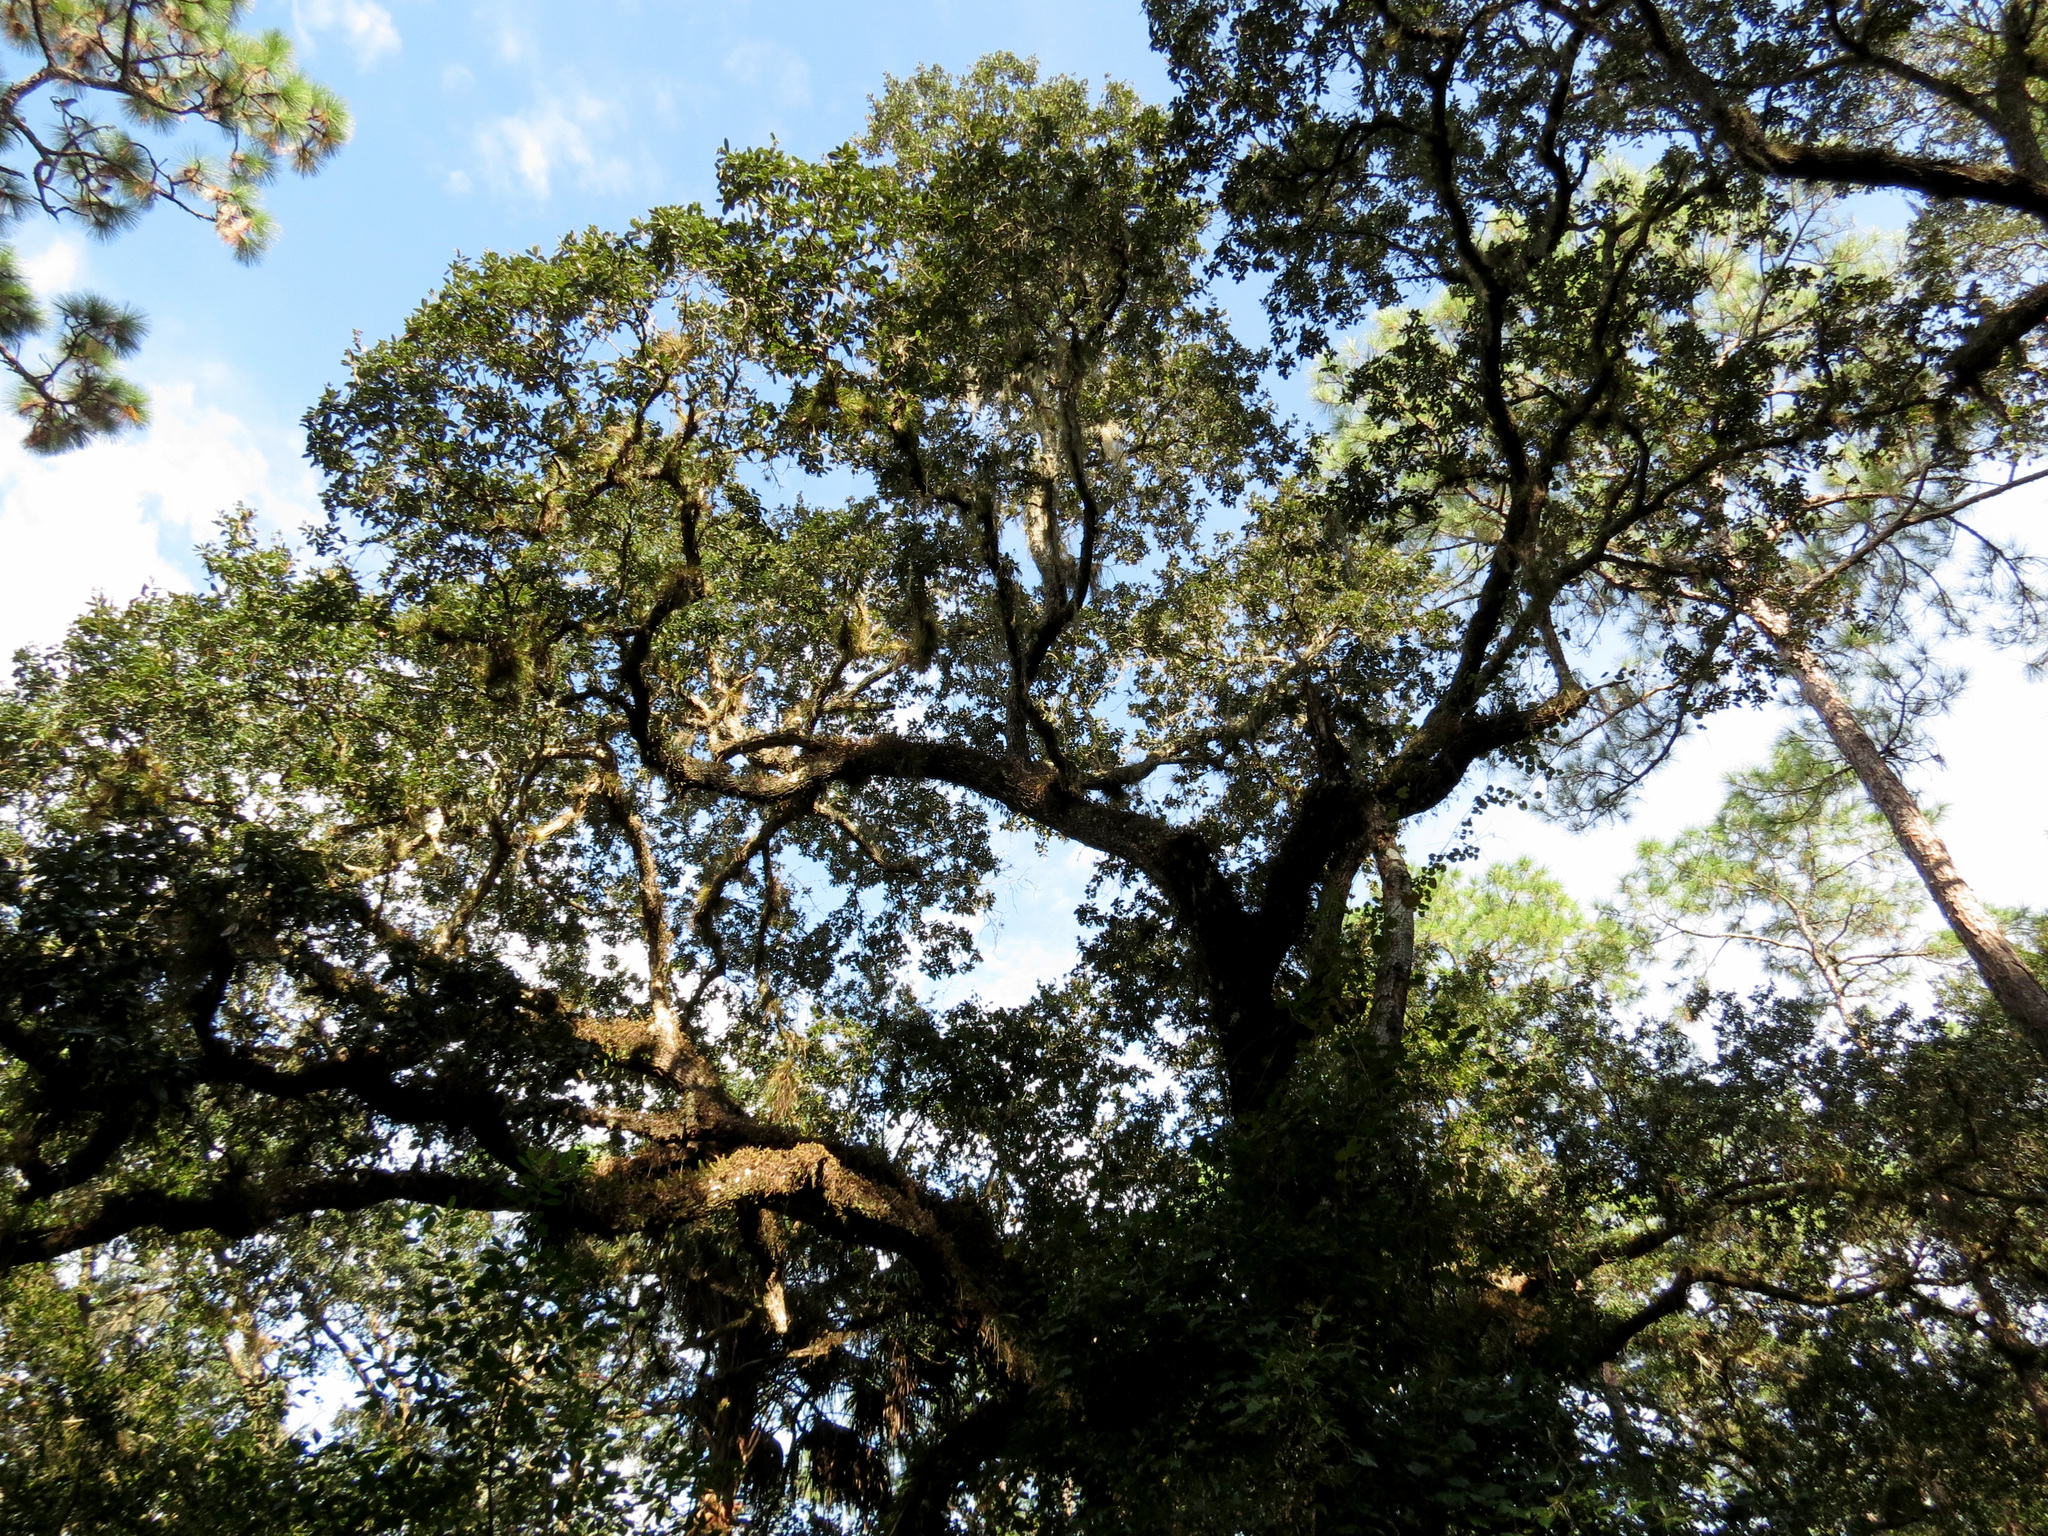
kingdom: Plantae
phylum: Tracheophyta
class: Magnoliopsida
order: Fagales
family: Fagaceae
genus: Quercus
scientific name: Quercus virginiana
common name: Southern live oak
